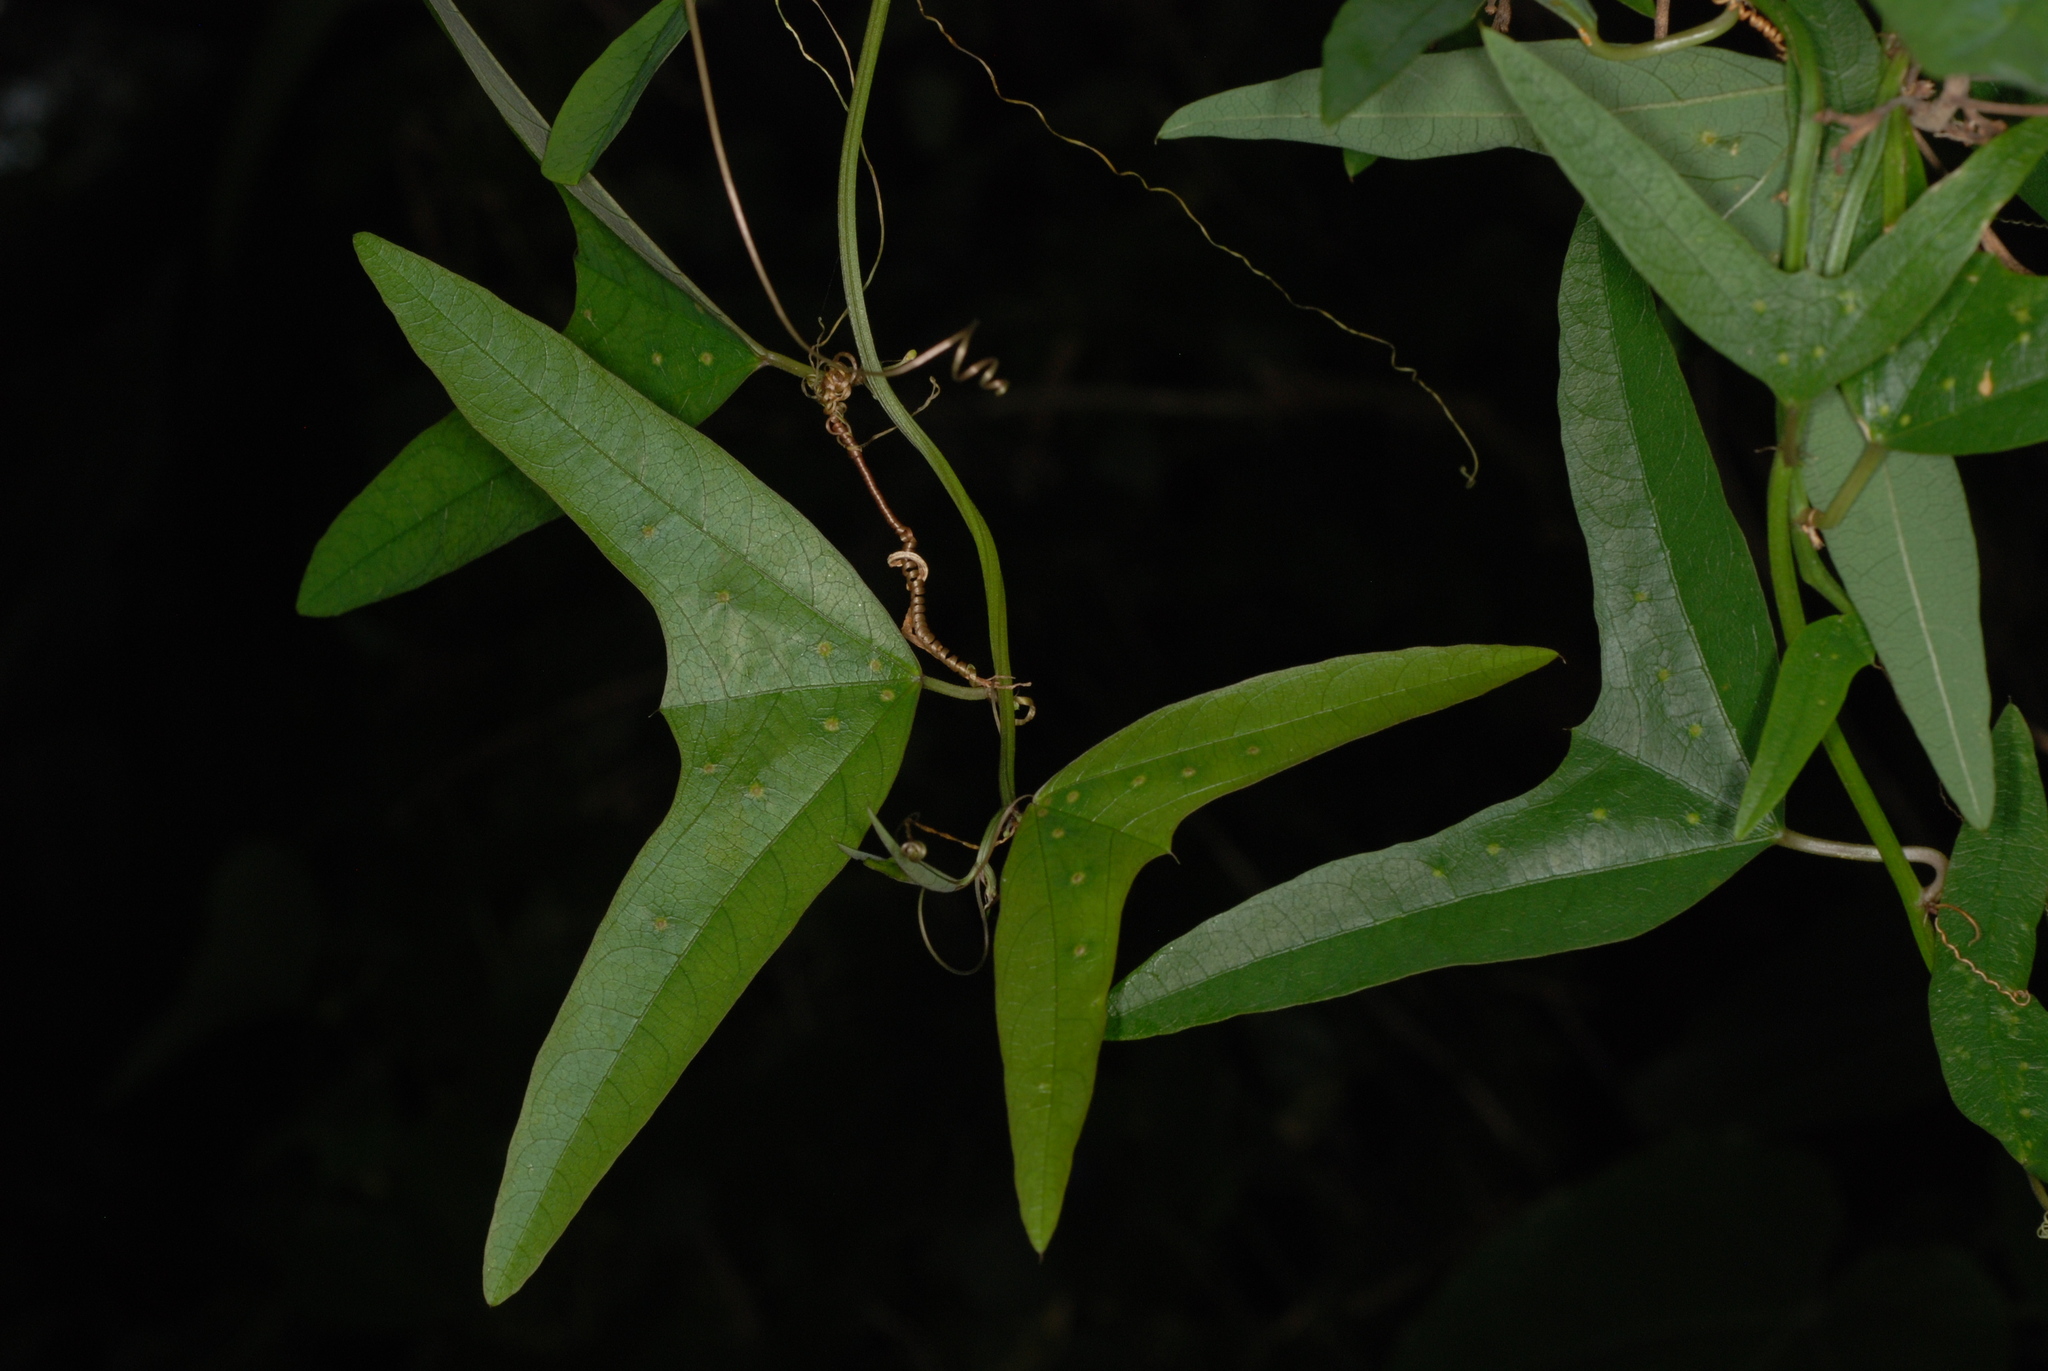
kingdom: Plantae
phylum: Tracheophyta
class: Magnoliopsida
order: Malpighiales
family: Passifloraceae
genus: Passiflora
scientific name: Passiflora biflora
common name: Twoflower passionflower
